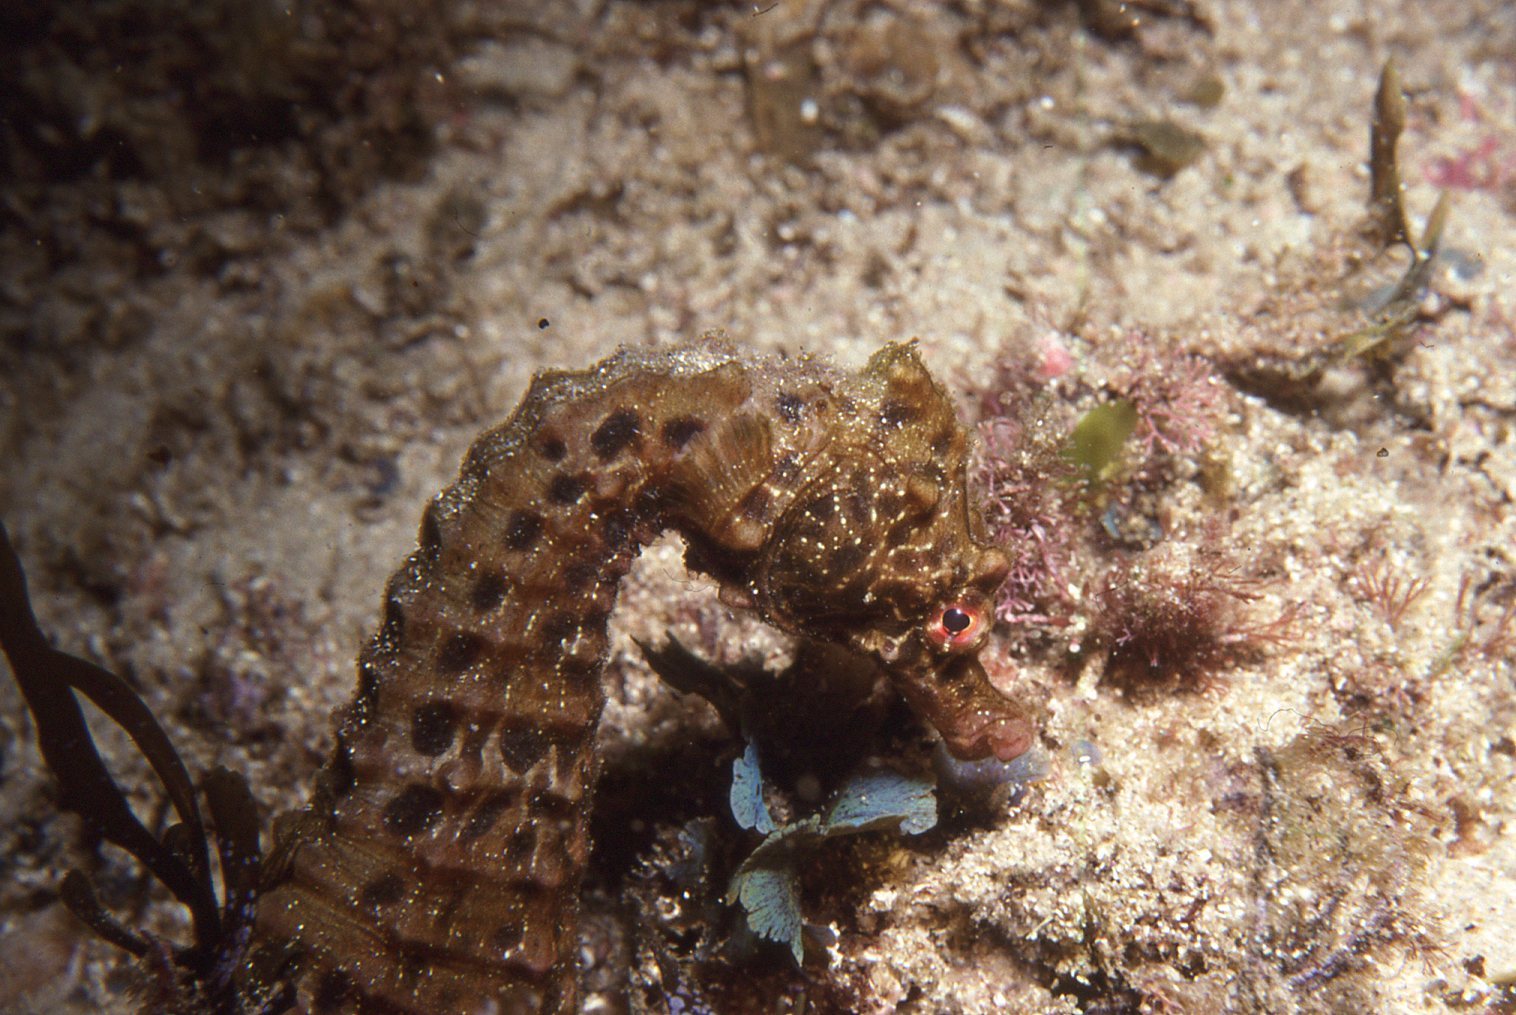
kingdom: Animalia
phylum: Chordata
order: Syngnathiformes
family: Syngnathidae
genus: Hippocampus
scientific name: Hippocampus abdominalis
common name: Big-belly seahorse
